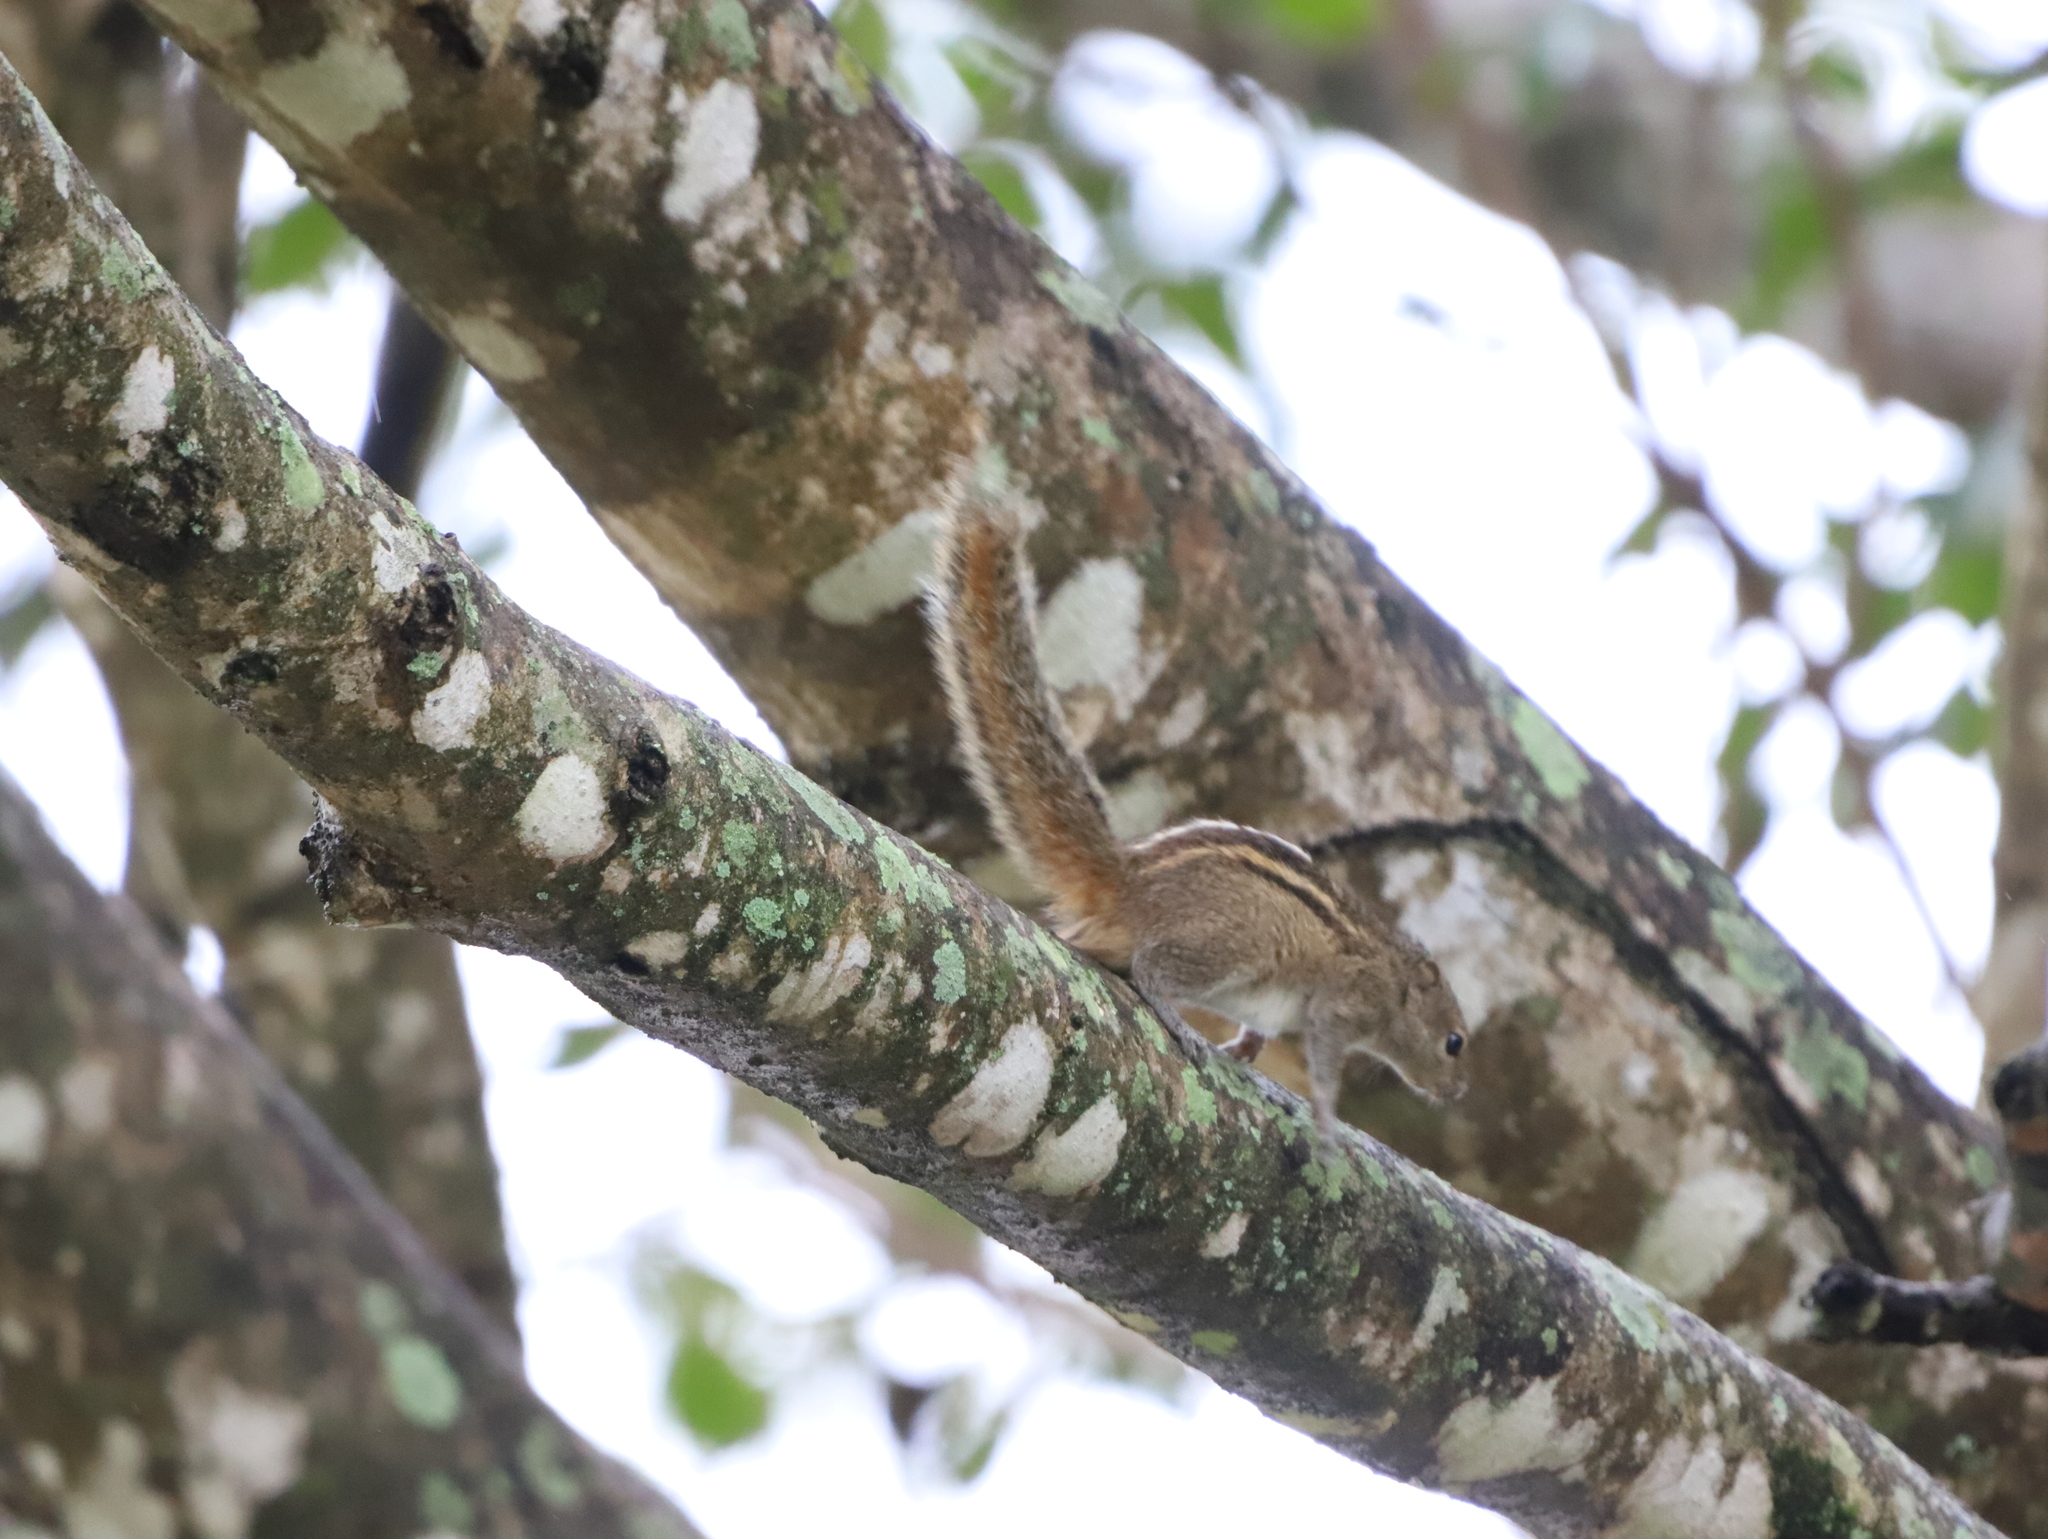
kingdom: Animalia
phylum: Chordata
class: Mammalia
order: Rodentia
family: Sciuridae
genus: Funambulus
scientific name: Funambulus palmarum
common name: Indian palm squirrel
